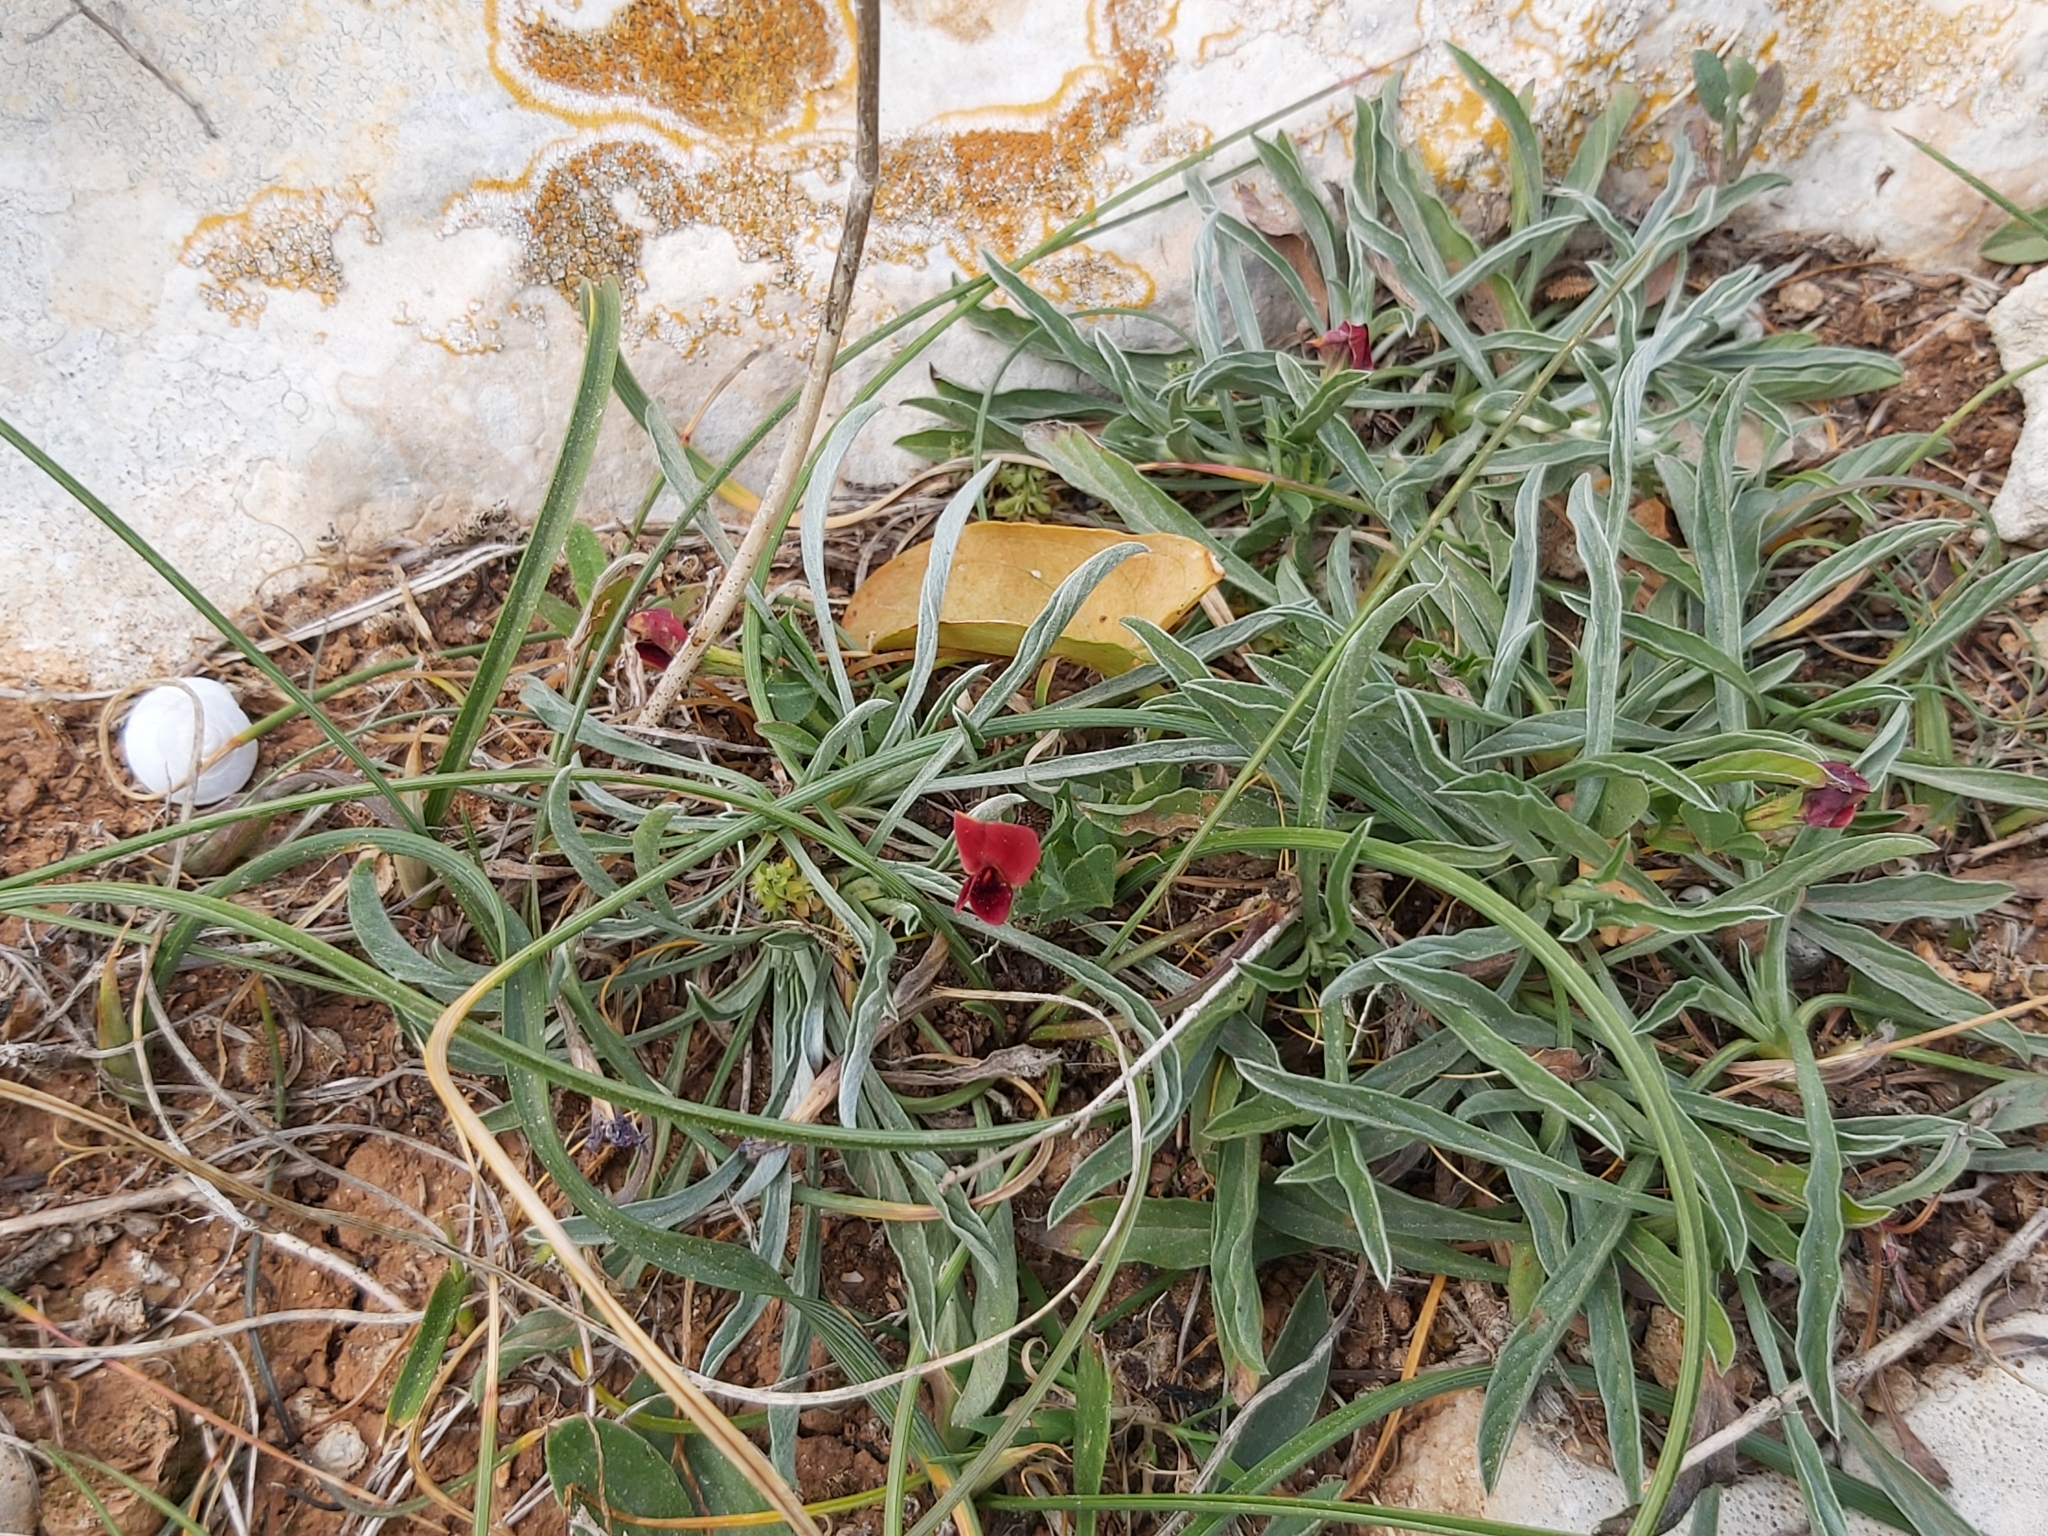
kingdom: Plantae
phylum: Tracheophyta
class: Magnoliopsida
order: Fabales
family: Fabaceae
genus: Lotus
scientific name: Lotus tetragonolobus
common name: Asparagus-pea
